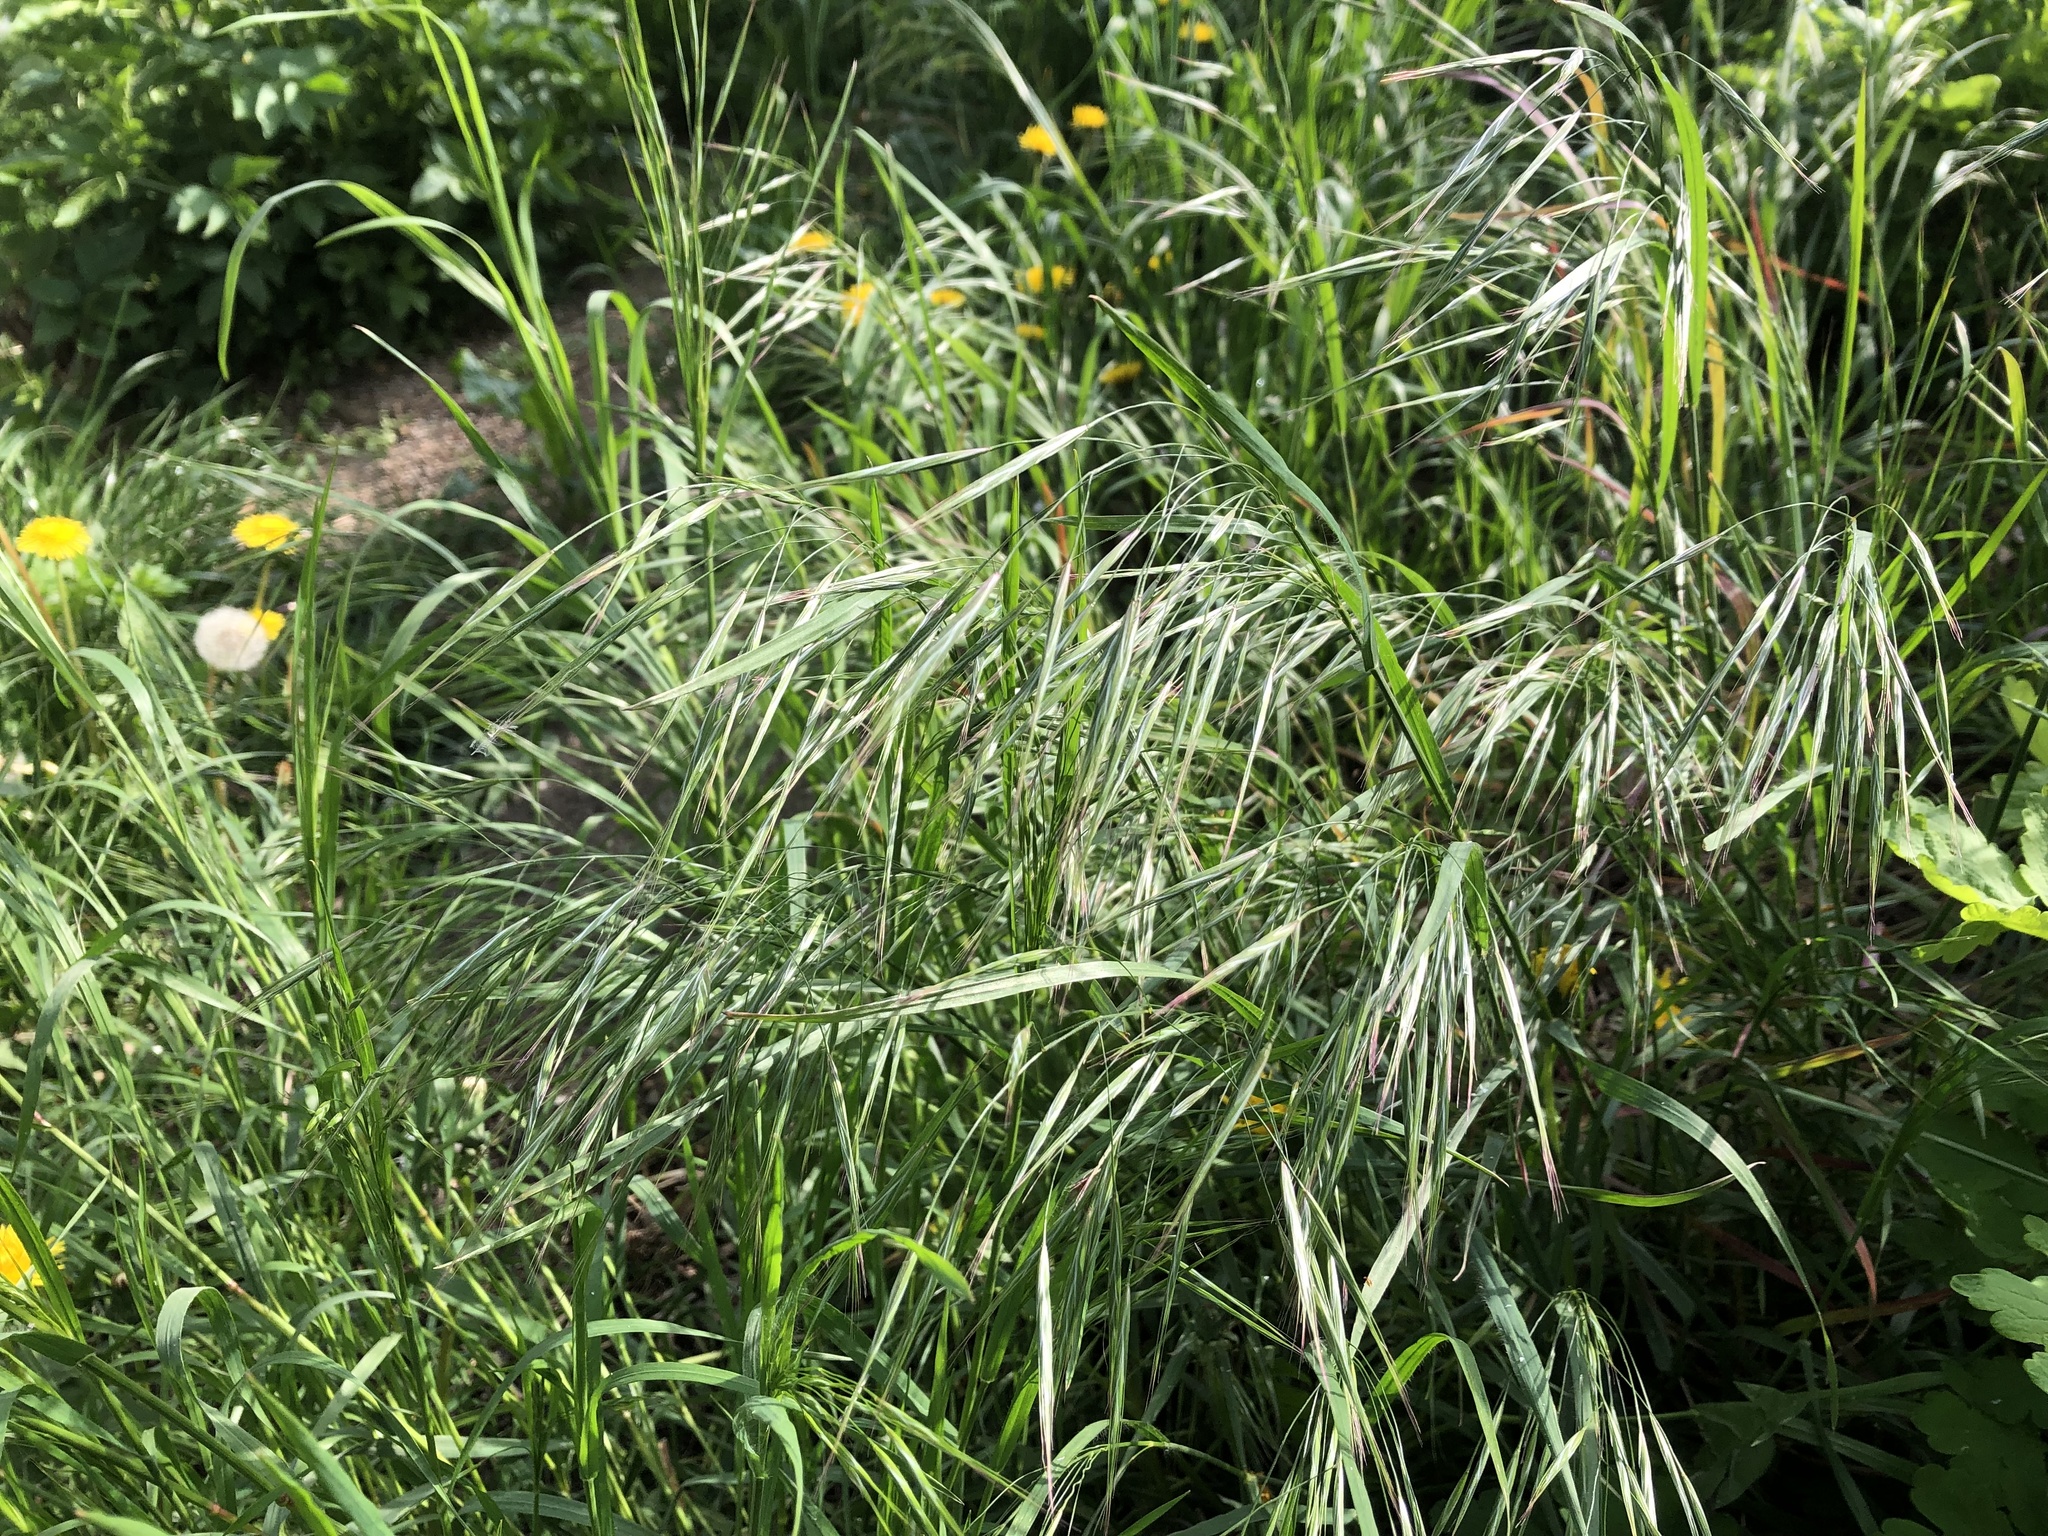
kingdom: Plantae
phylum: Tracheophyta
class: Liliopsida
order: Poales
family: Poaceae
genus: Bromus
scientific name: Bromus sterilis
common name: Poverty brome
